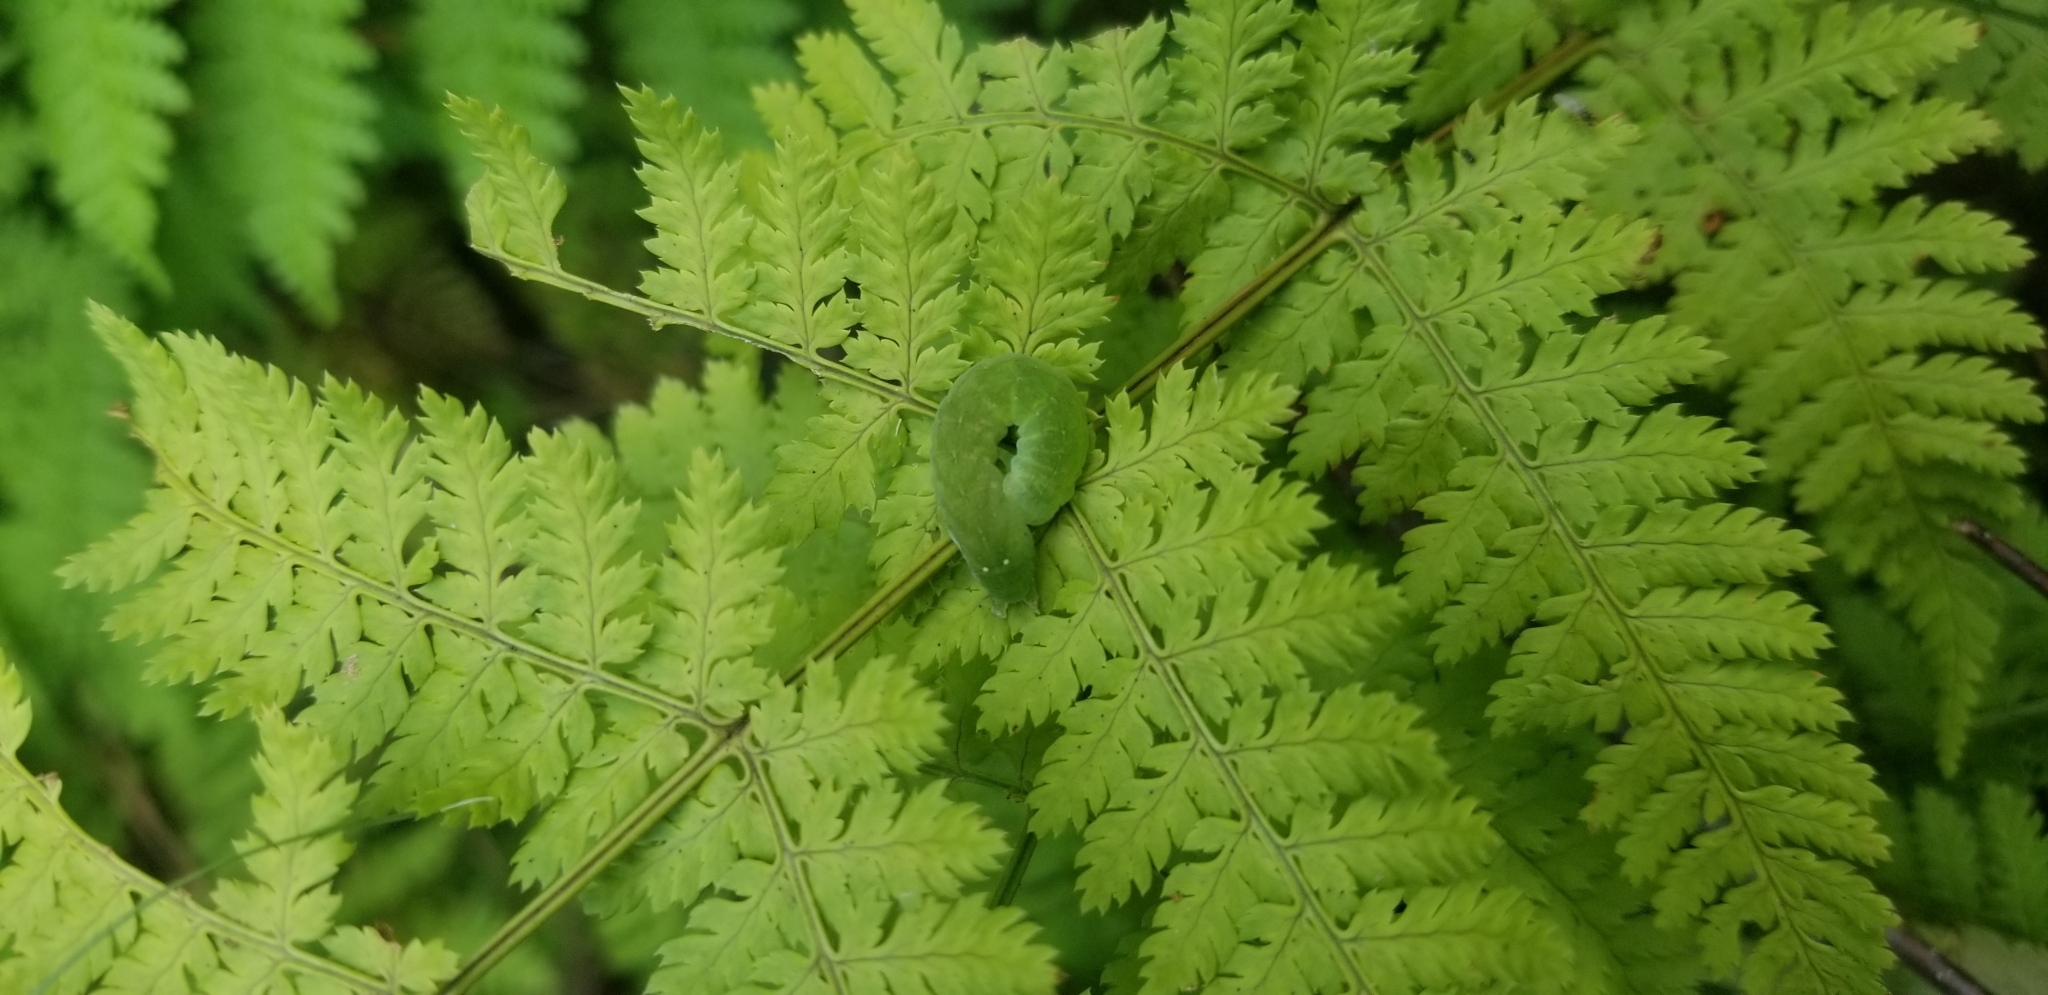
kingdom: Animalia
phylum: Arthropoda
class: Insecta
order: Lepidoptera
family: Noctuidae
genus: Euplexia
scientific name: Euplexia benesimilis
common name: American angle shades
